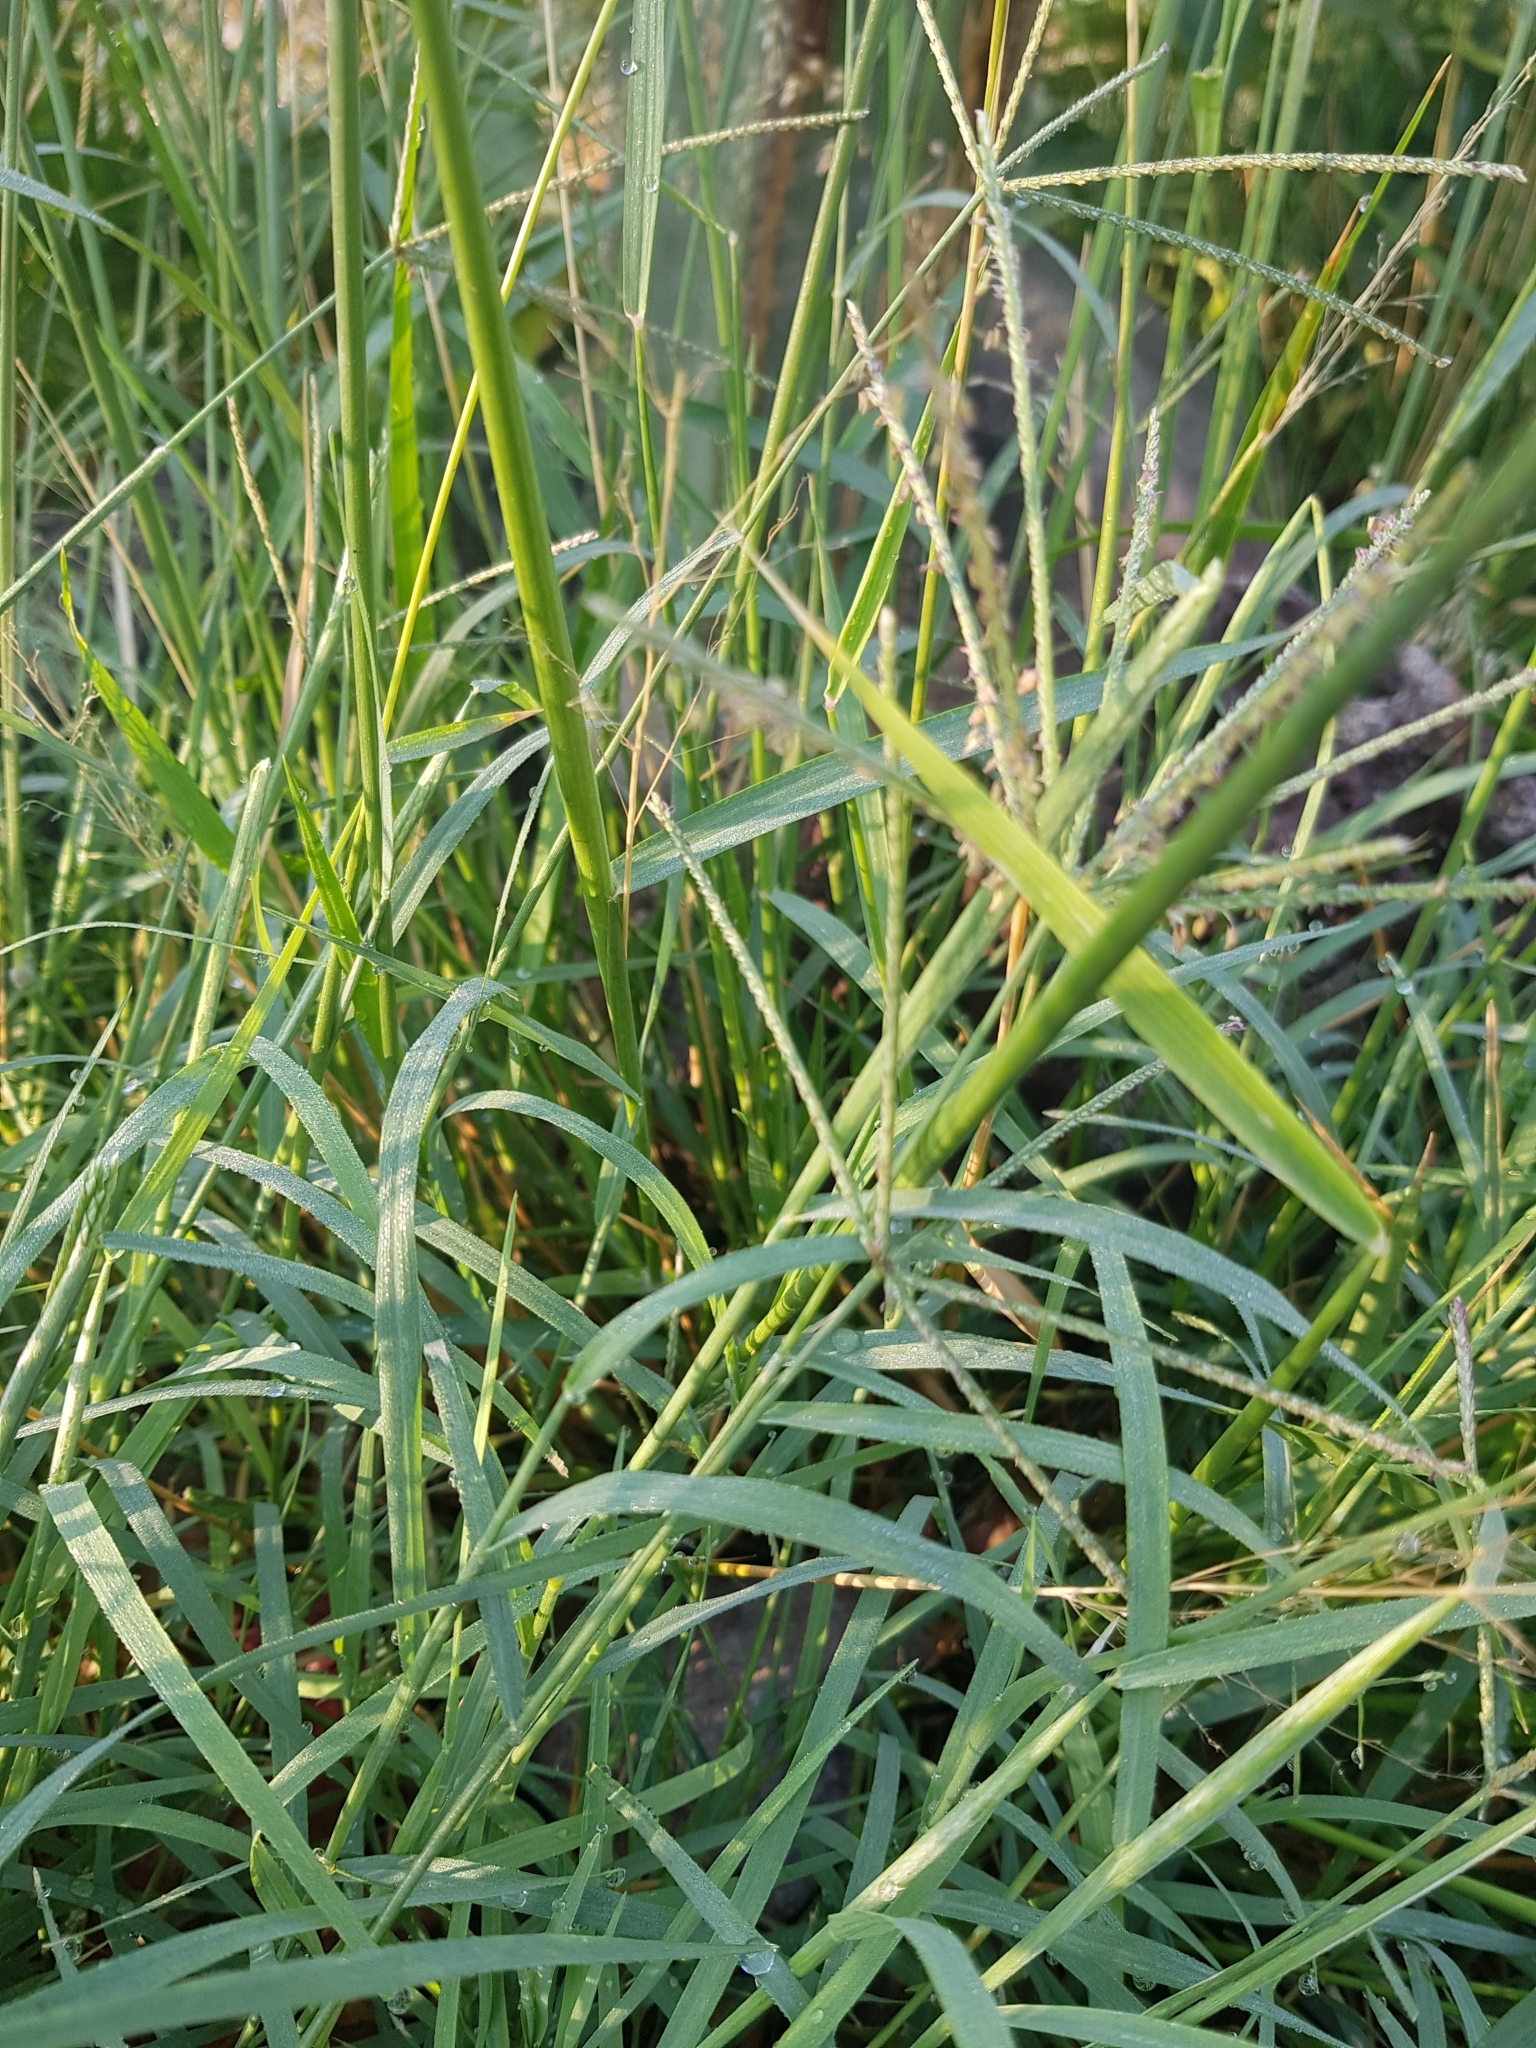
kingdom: Plantae
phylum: Tracheophyta
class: Liliopsida
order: Poales
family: Poaceae
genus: Melinis
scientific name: Melinis repens
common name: Rose natal grass
